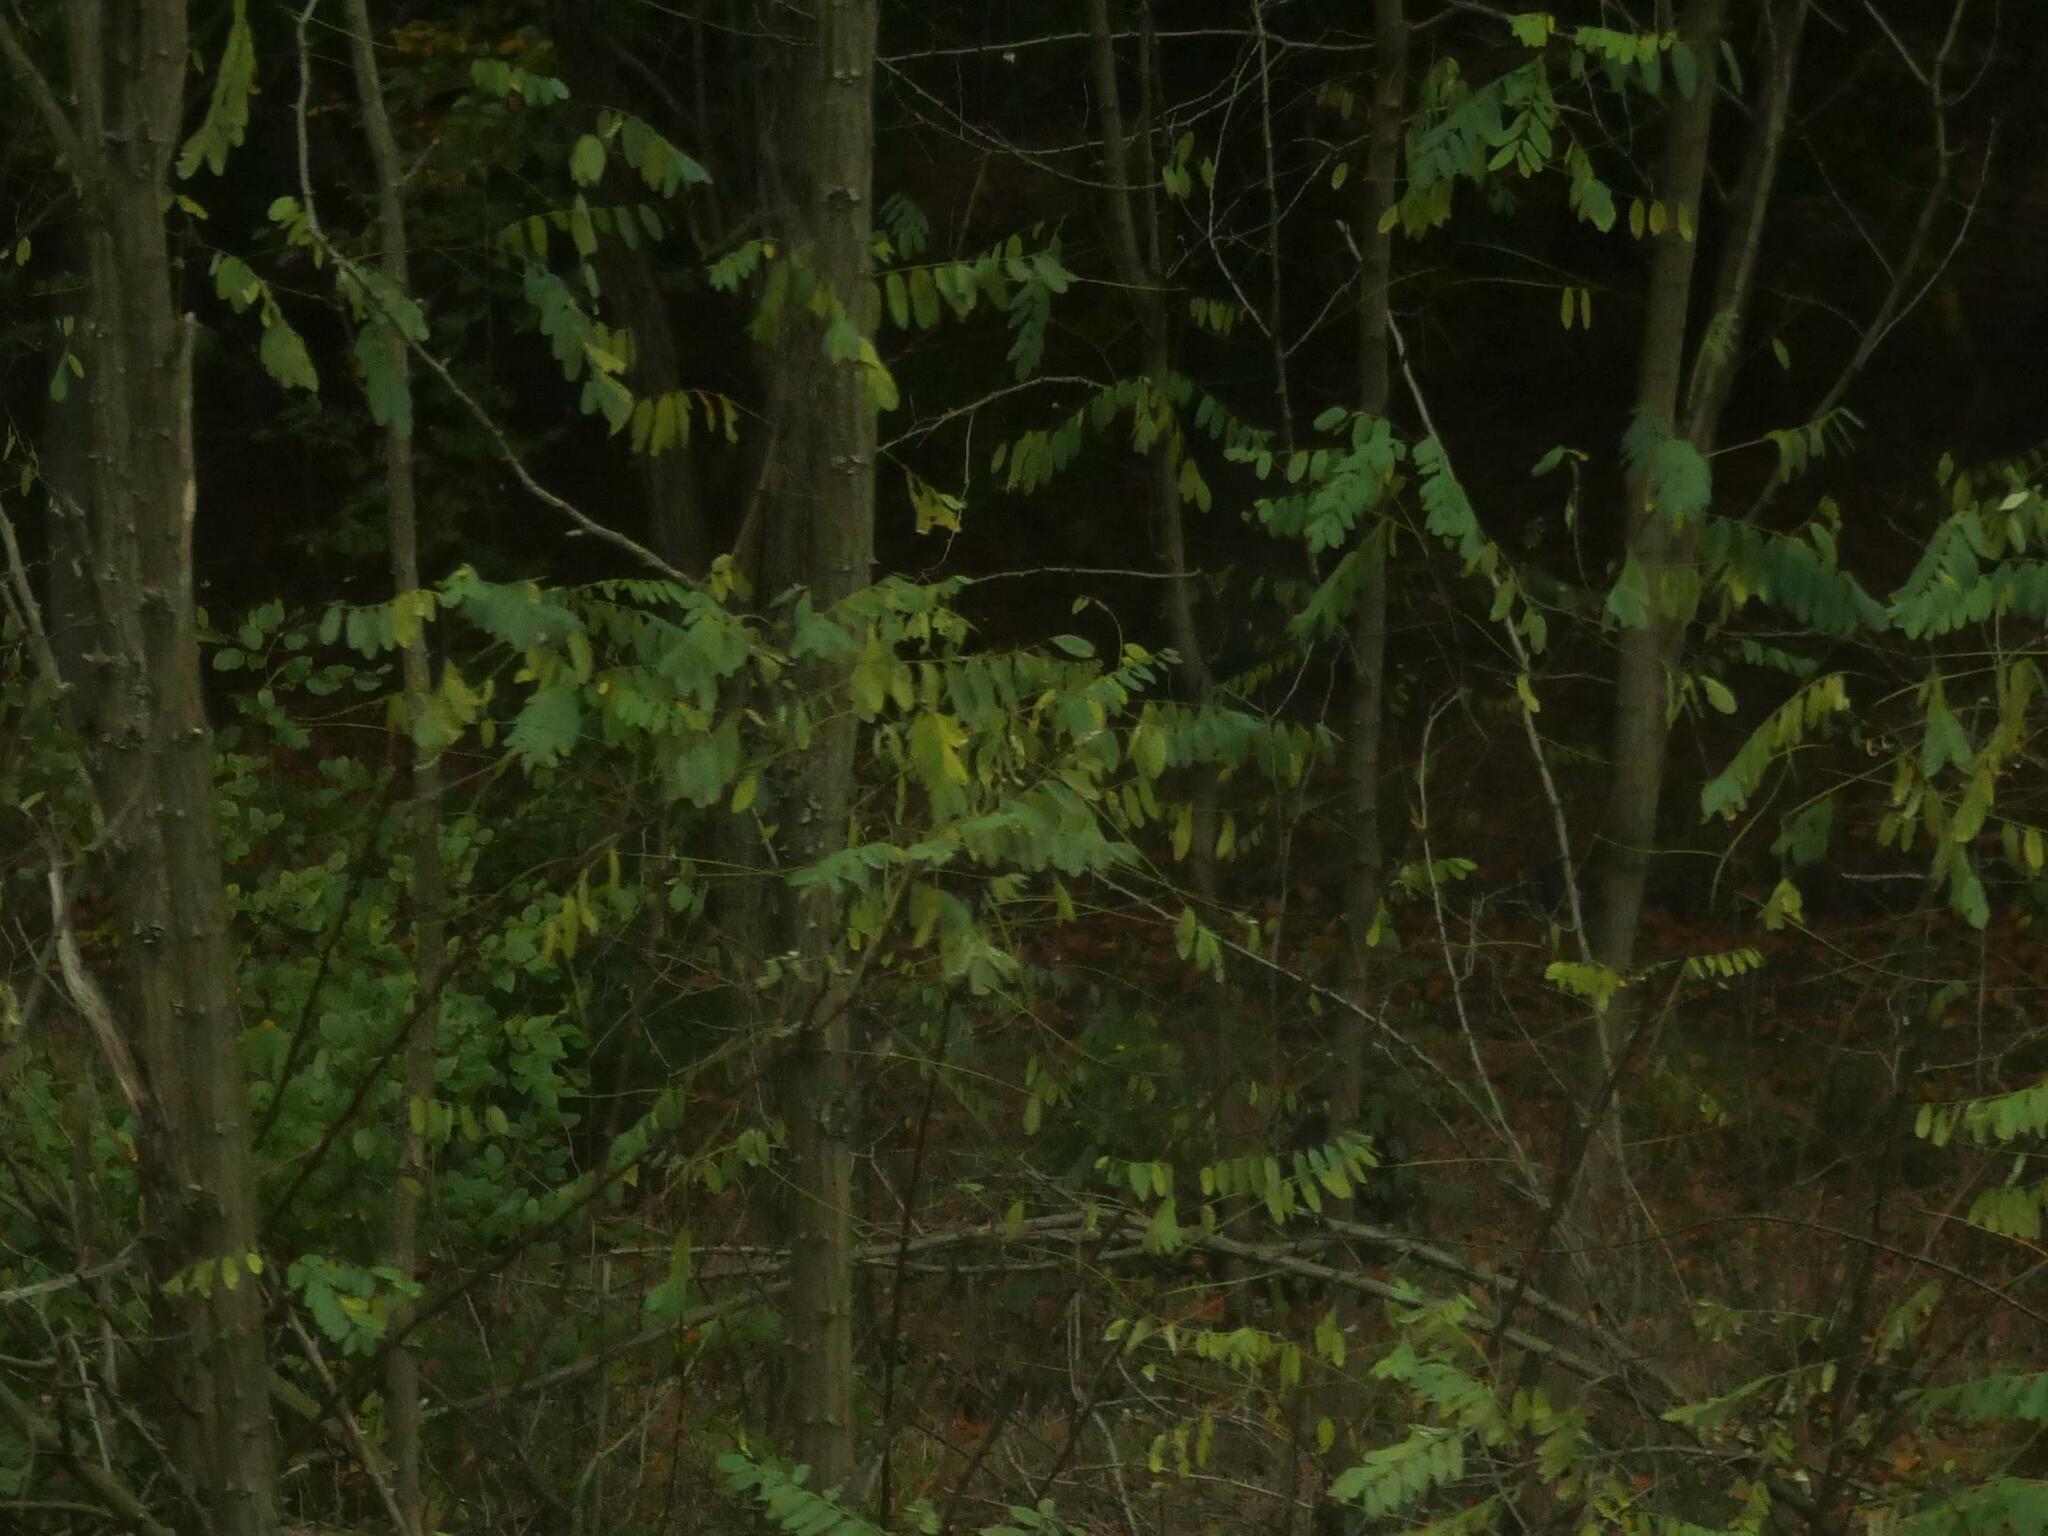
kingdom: Plantae
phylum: Tracheophyta
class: Magnoliopsida
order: Fabales
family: Fabaceae
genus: Robinia
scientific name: Robinia pseudoacacia
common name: Black locust
